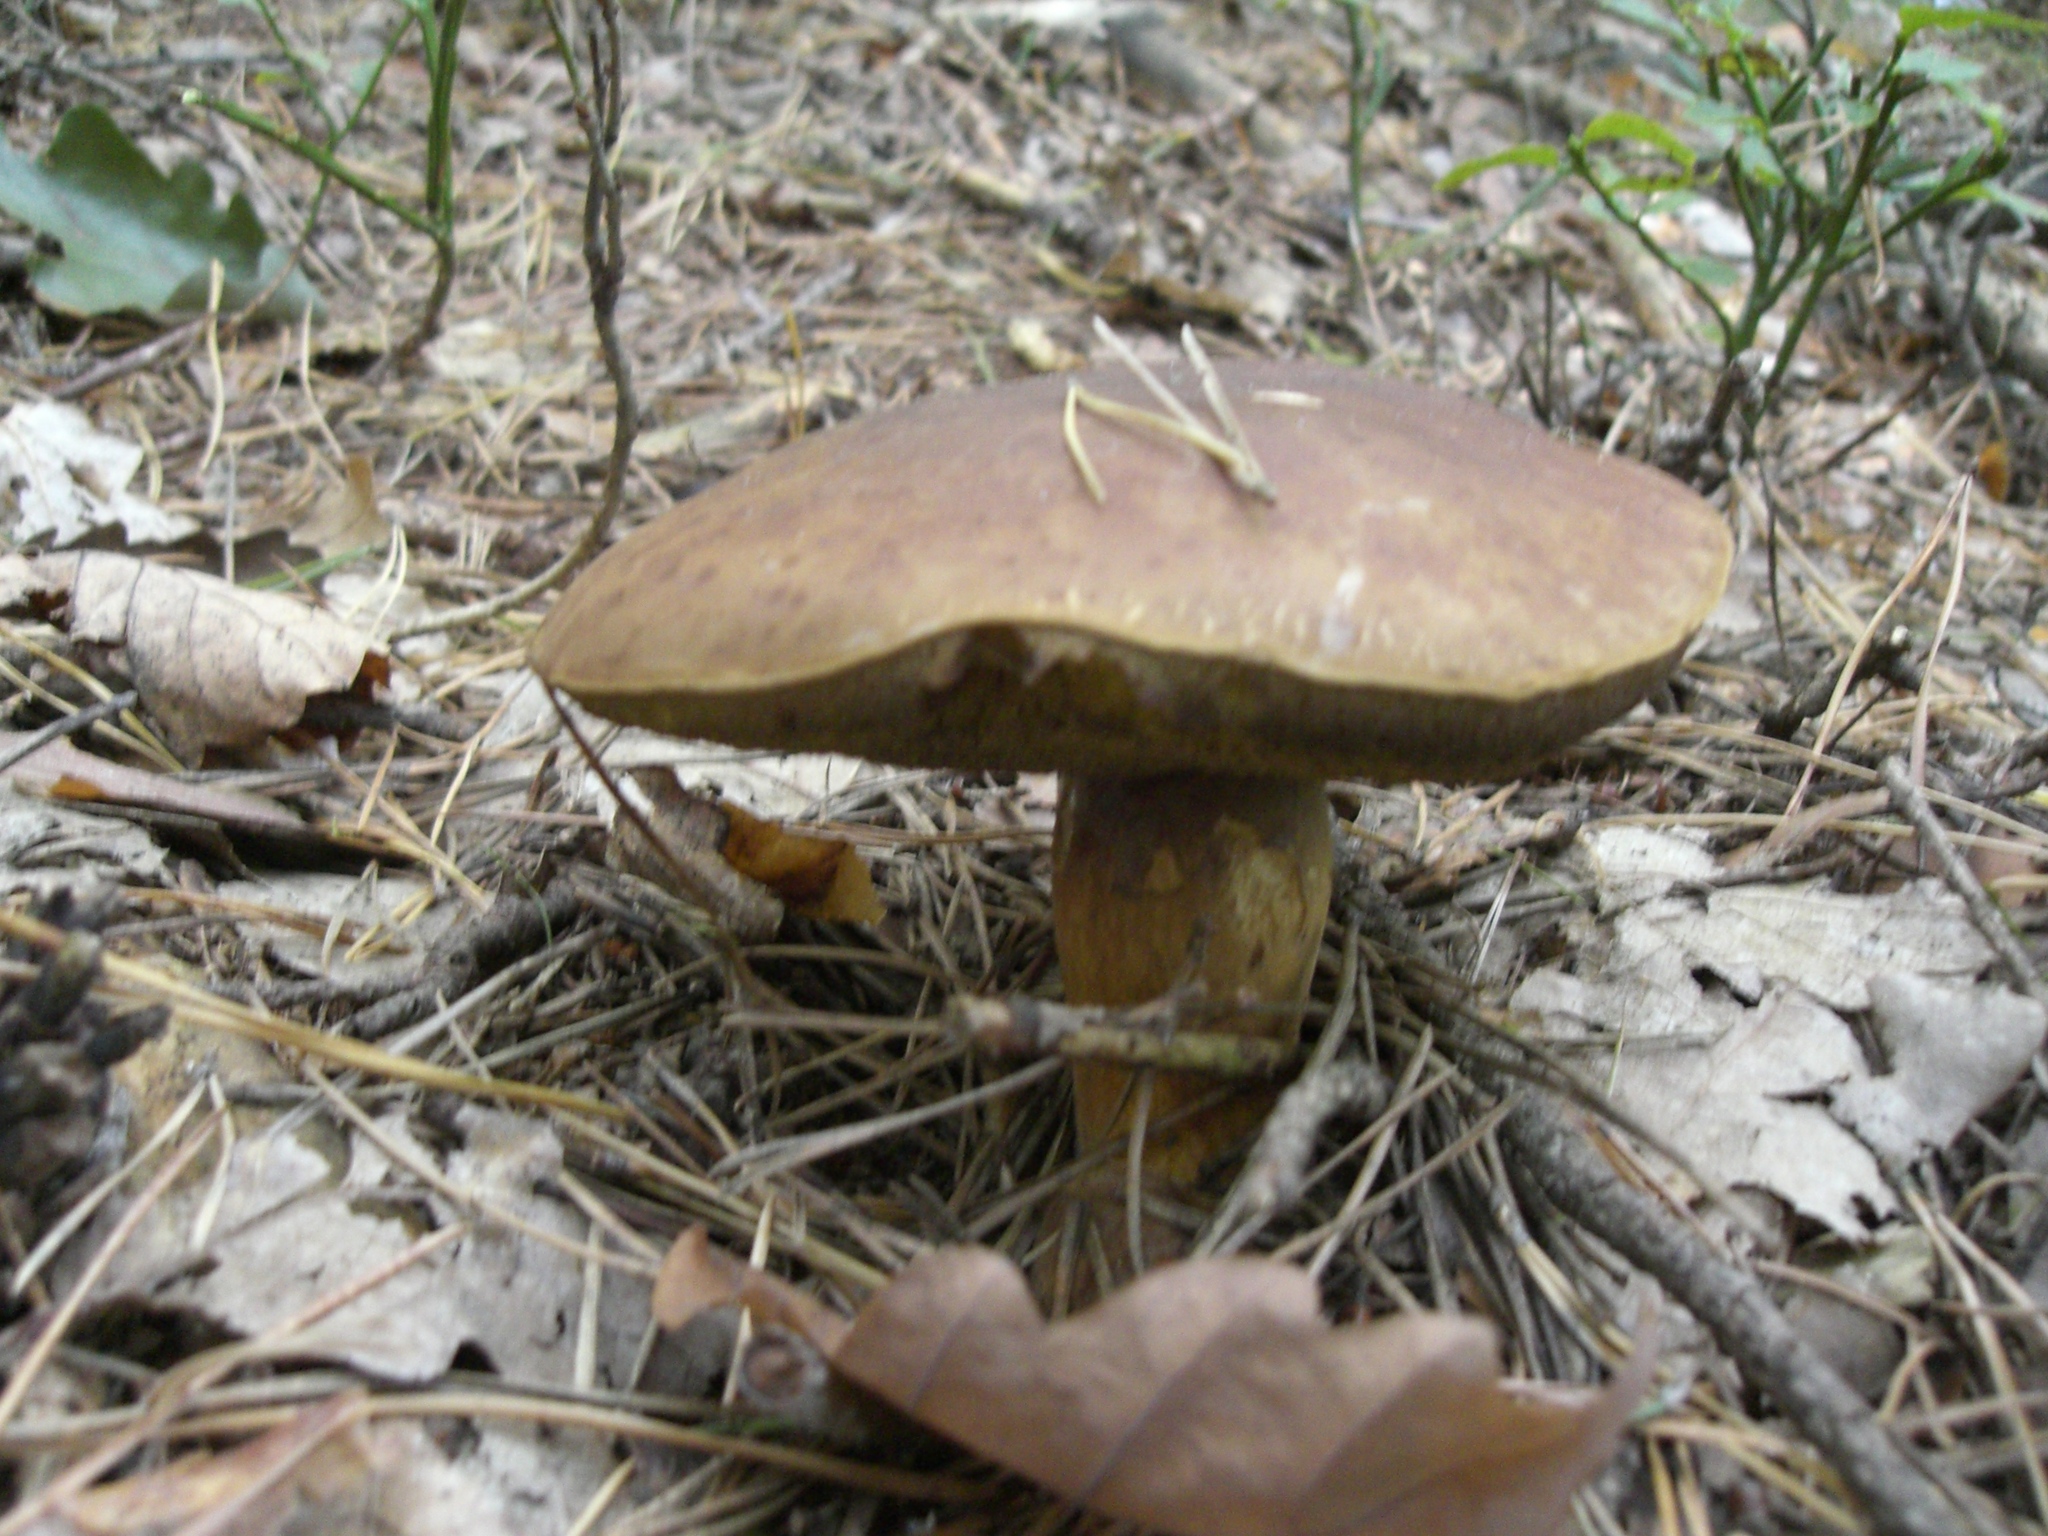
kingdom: Fungi
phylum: Basidiomycota
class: Agaricomycetes
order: Boletales
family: Boletaceae
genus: Imleria
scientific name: Imleria badia
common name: Bay bolete
